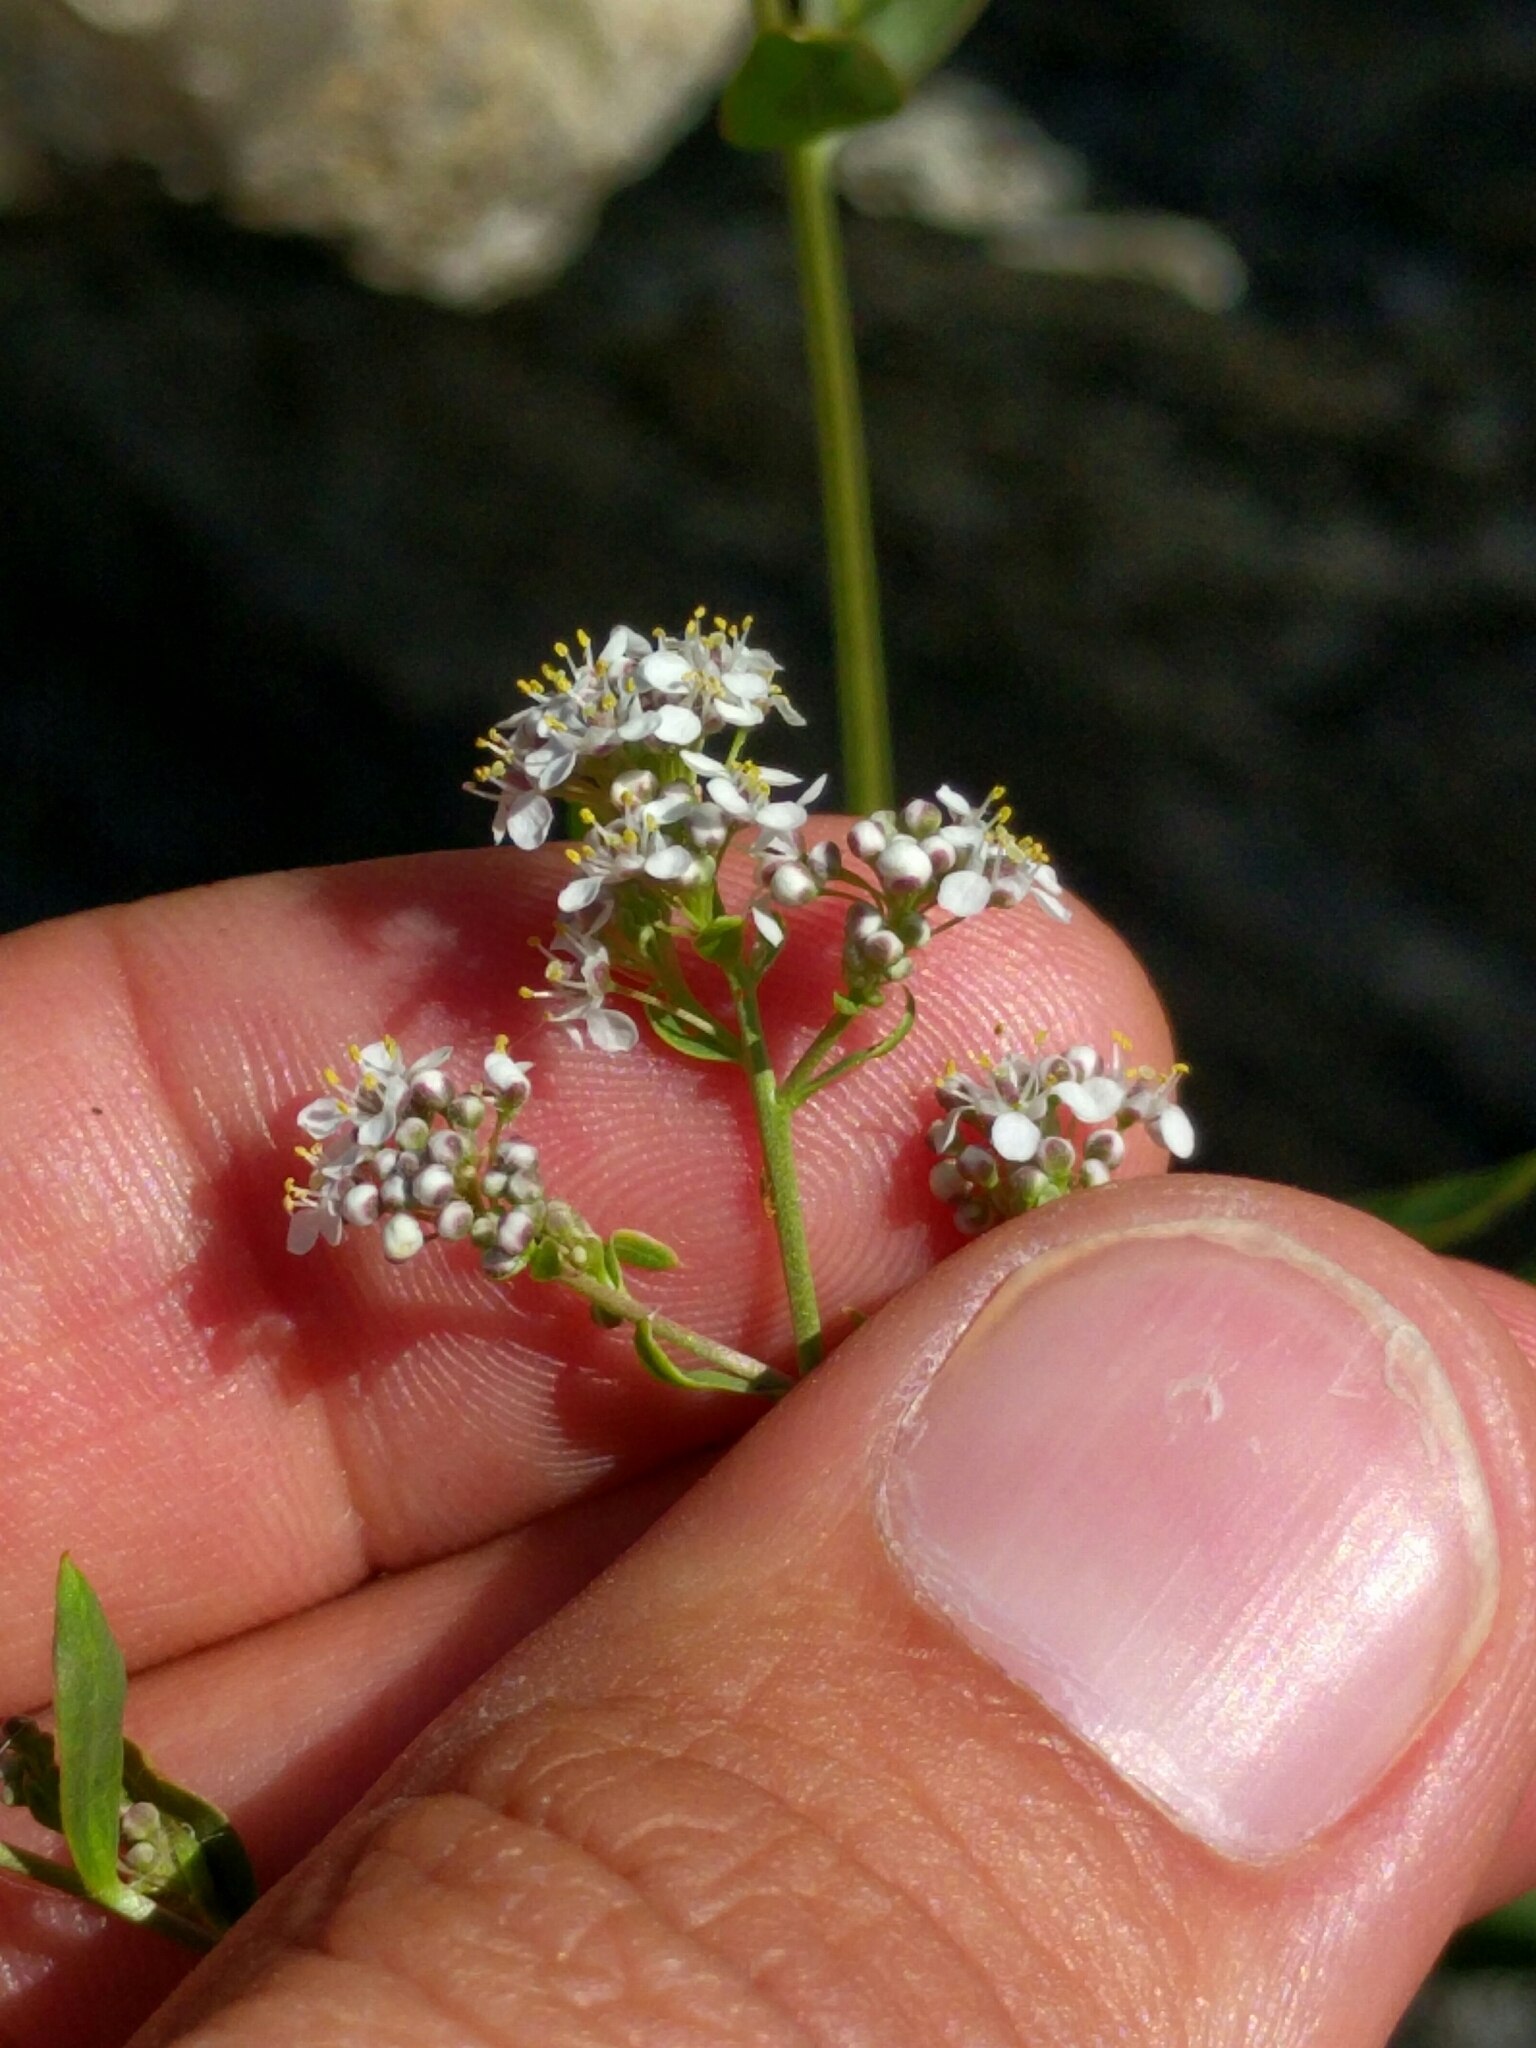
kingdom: Plantae
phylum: Tracheophyta
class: Magnoliopsida
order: Brassicales
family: Brassicaceae
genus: Lepidium
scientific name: Lepidium latifolium
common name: Dittander
